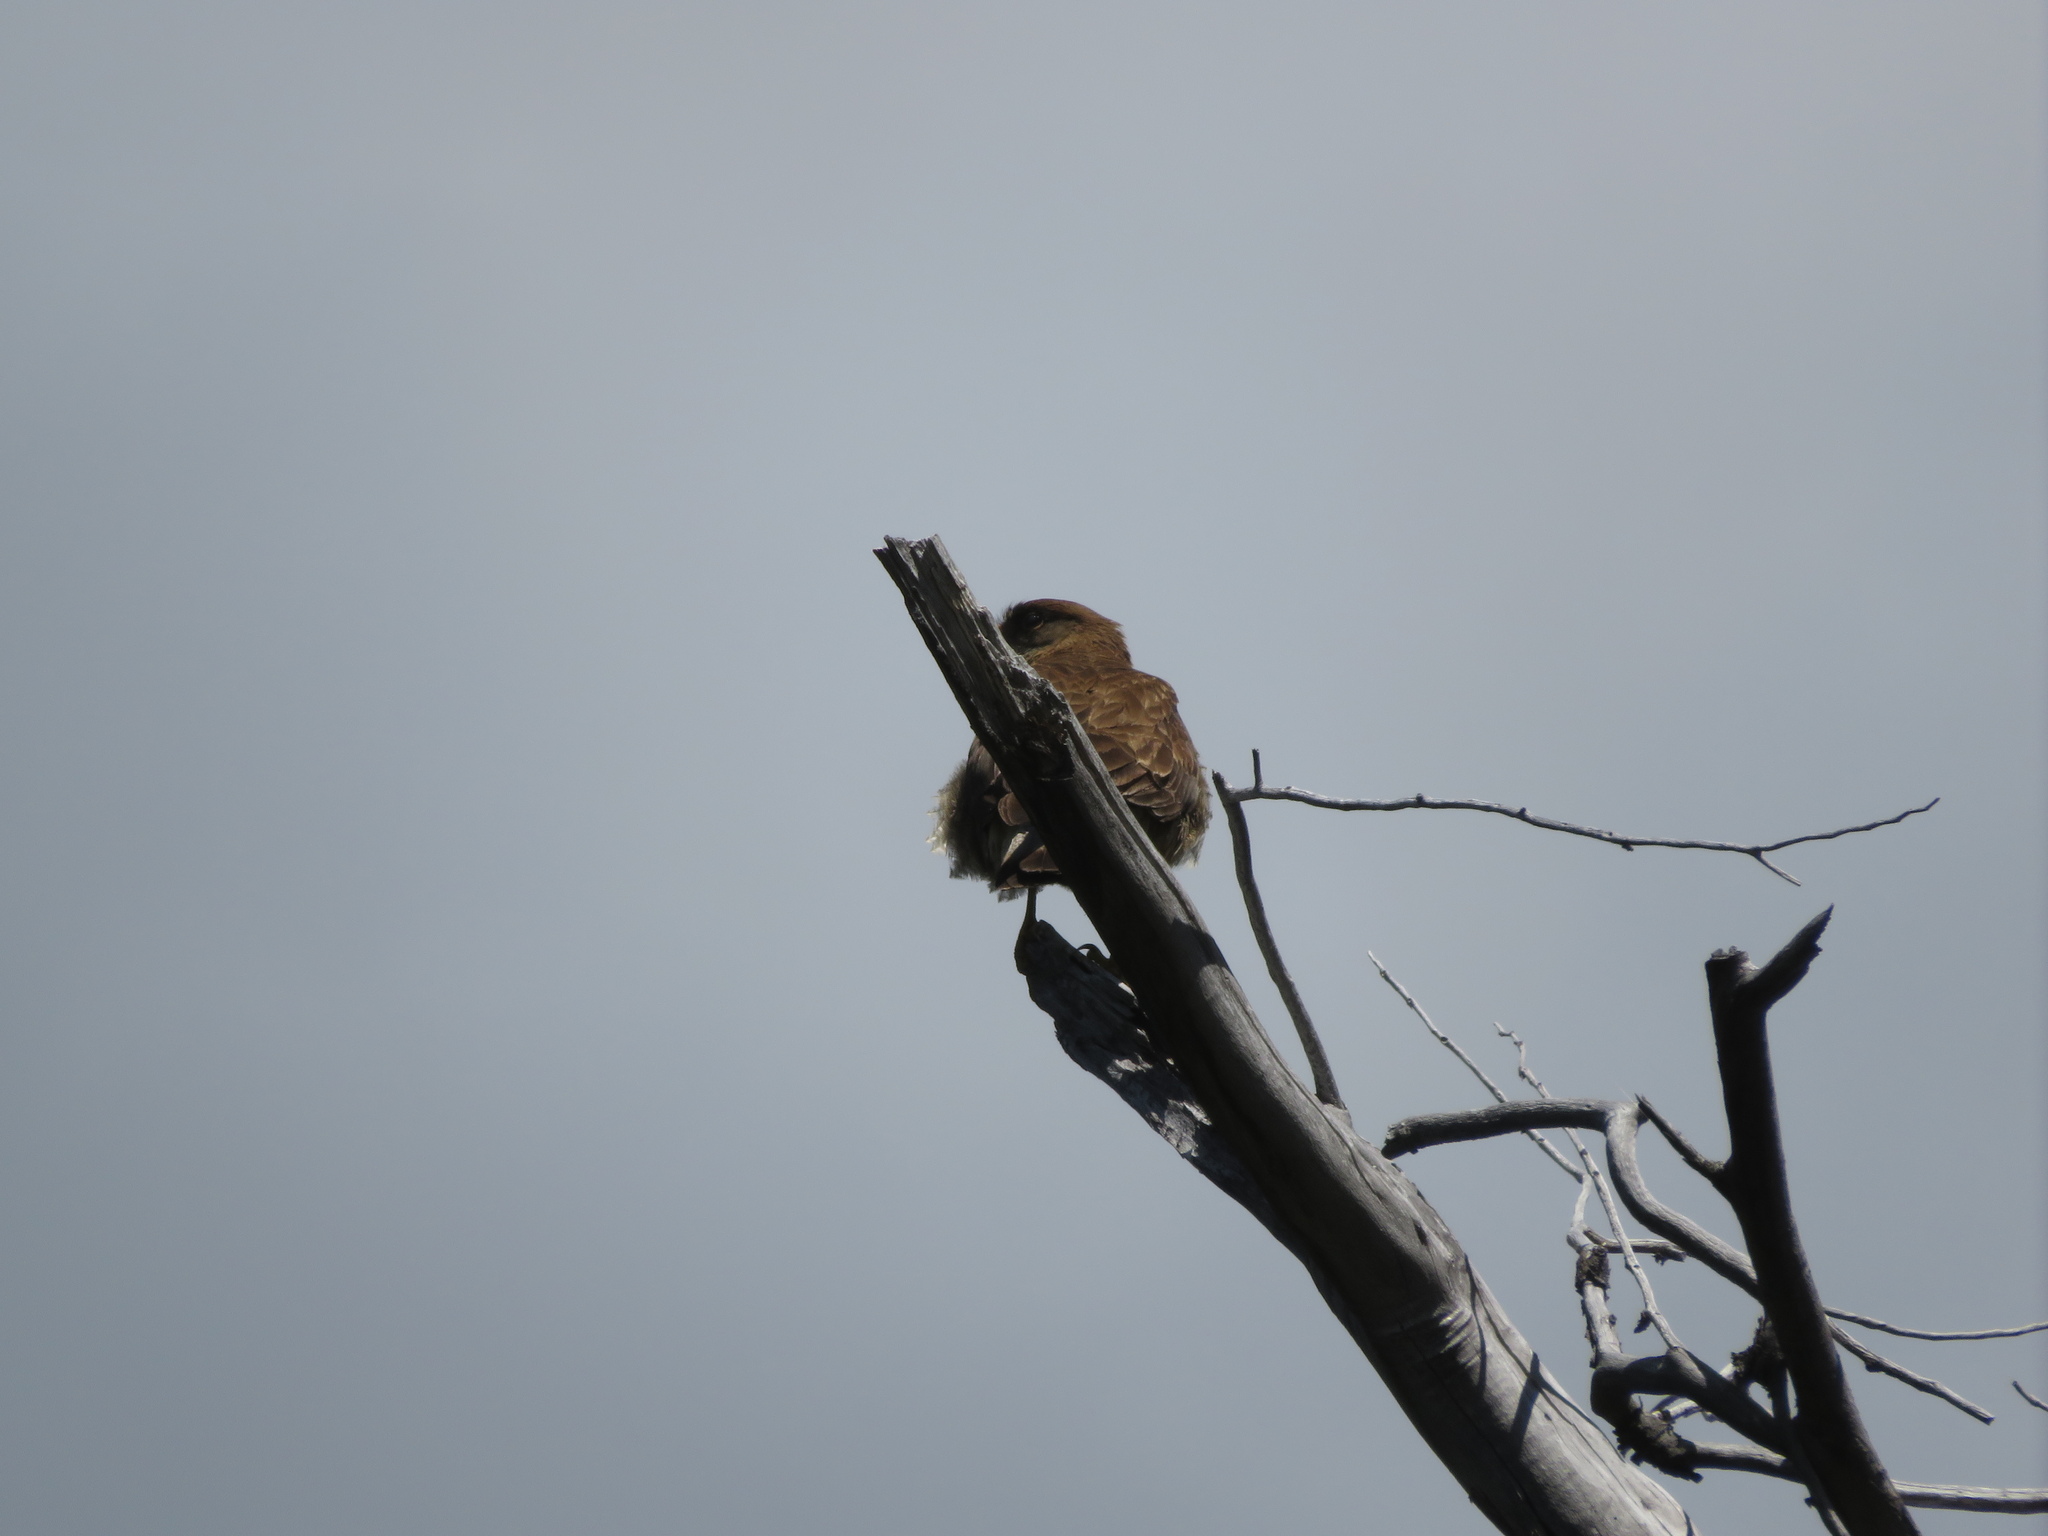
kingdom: Animalia
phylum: Chordata
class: Aves
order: Falconiformes
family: Falconidae
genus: Daptrius
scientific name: Daptrius
